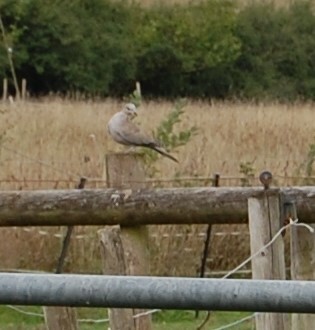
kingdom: Animalia
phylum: Chordata
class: Aves
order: Columbiformes
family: Columbidae
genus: Streptopelia
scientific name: Streptopelia decaocto
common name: Eurasian collared dove
